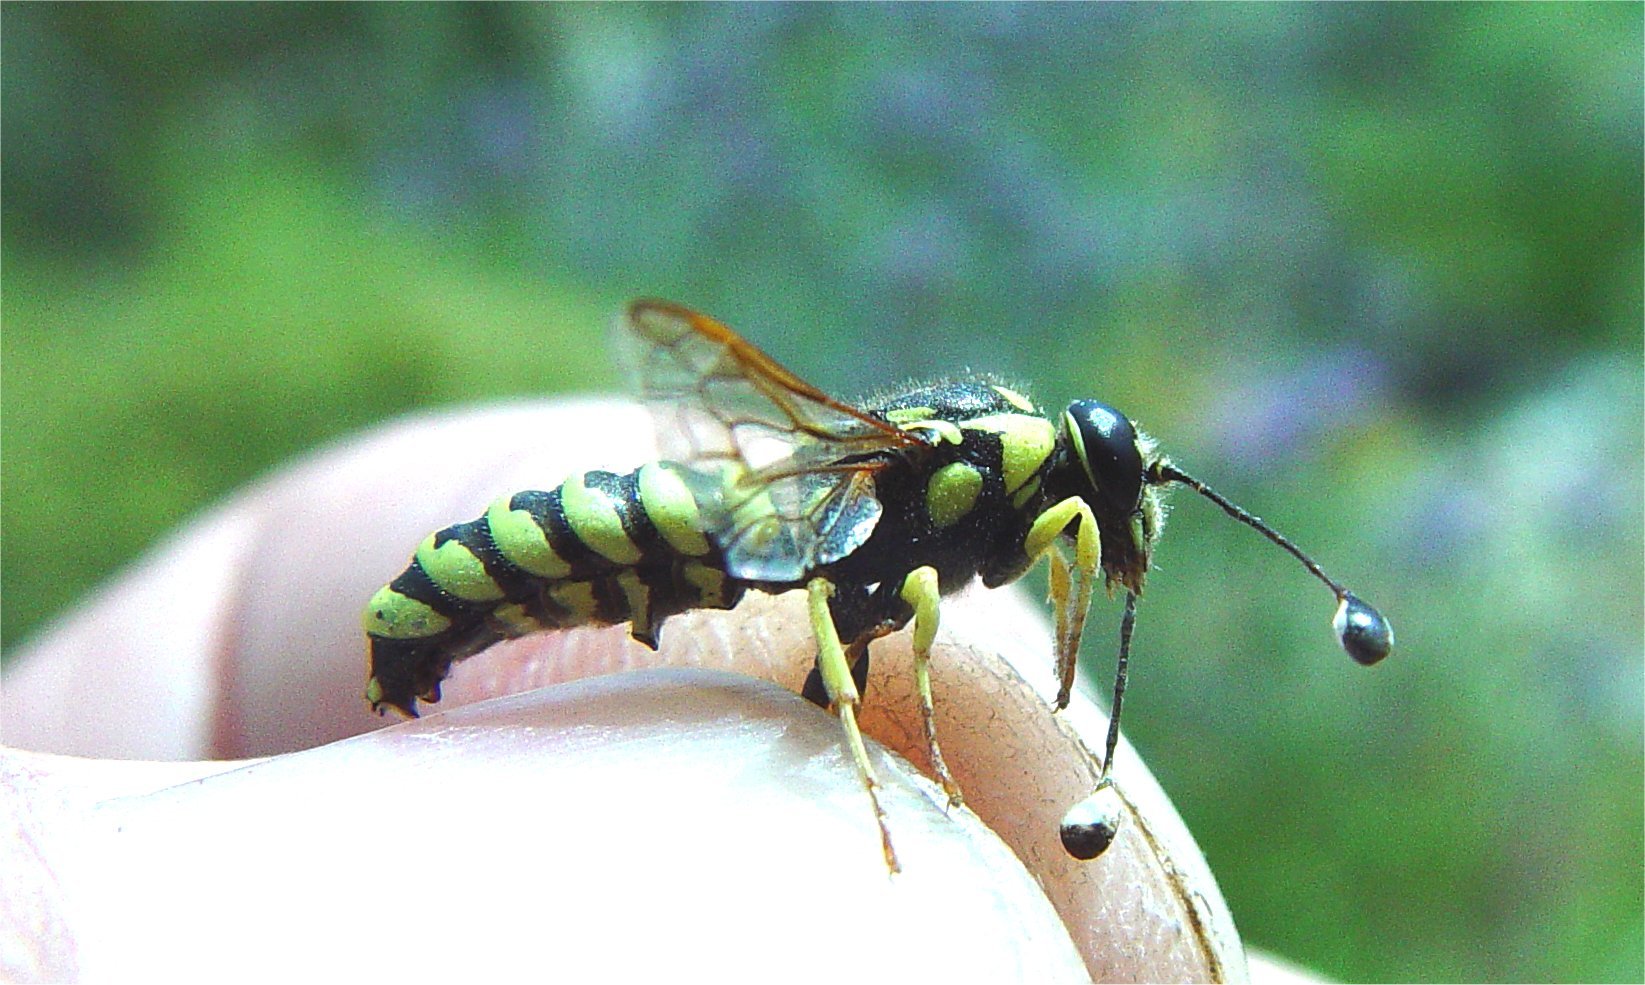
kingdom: Animalia
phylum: Arthropoda
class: Insecta
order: Hymenoptera
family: Masaridae
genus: Pseudomasaris
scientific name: Pseudomasaris macswaini
